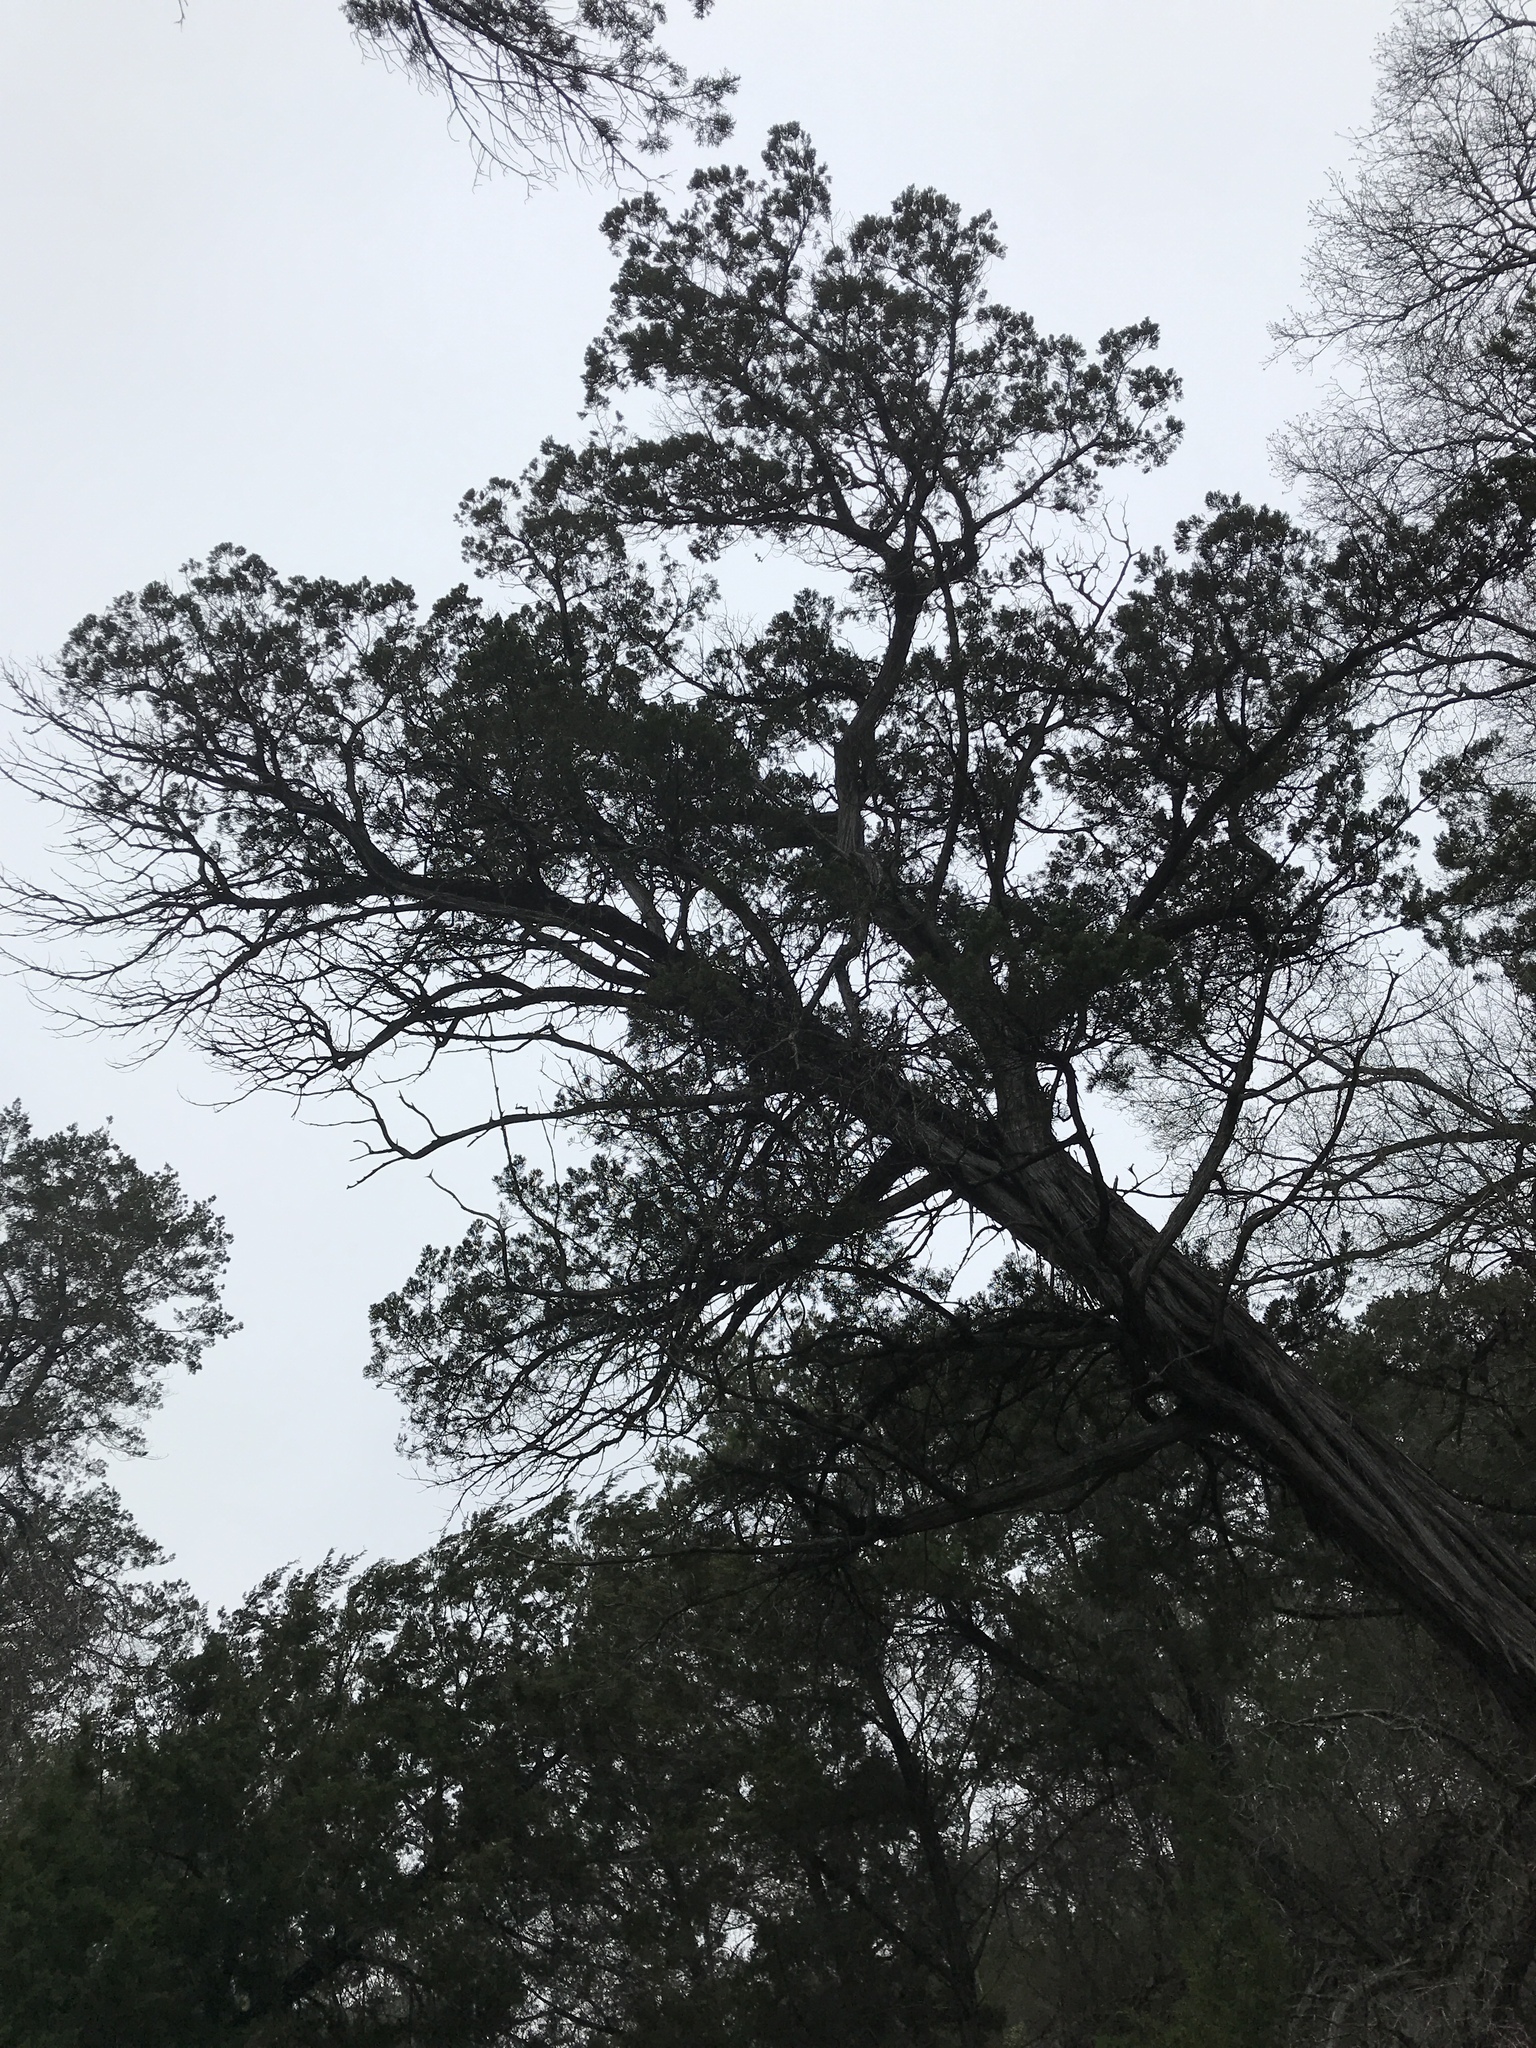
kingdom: Plantae
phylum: Tracheophyta
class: Pinopsida
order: Pinales
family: Cupressaceae
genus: Juniperus
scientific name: Juniperus ashei
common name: Mexican juniper
